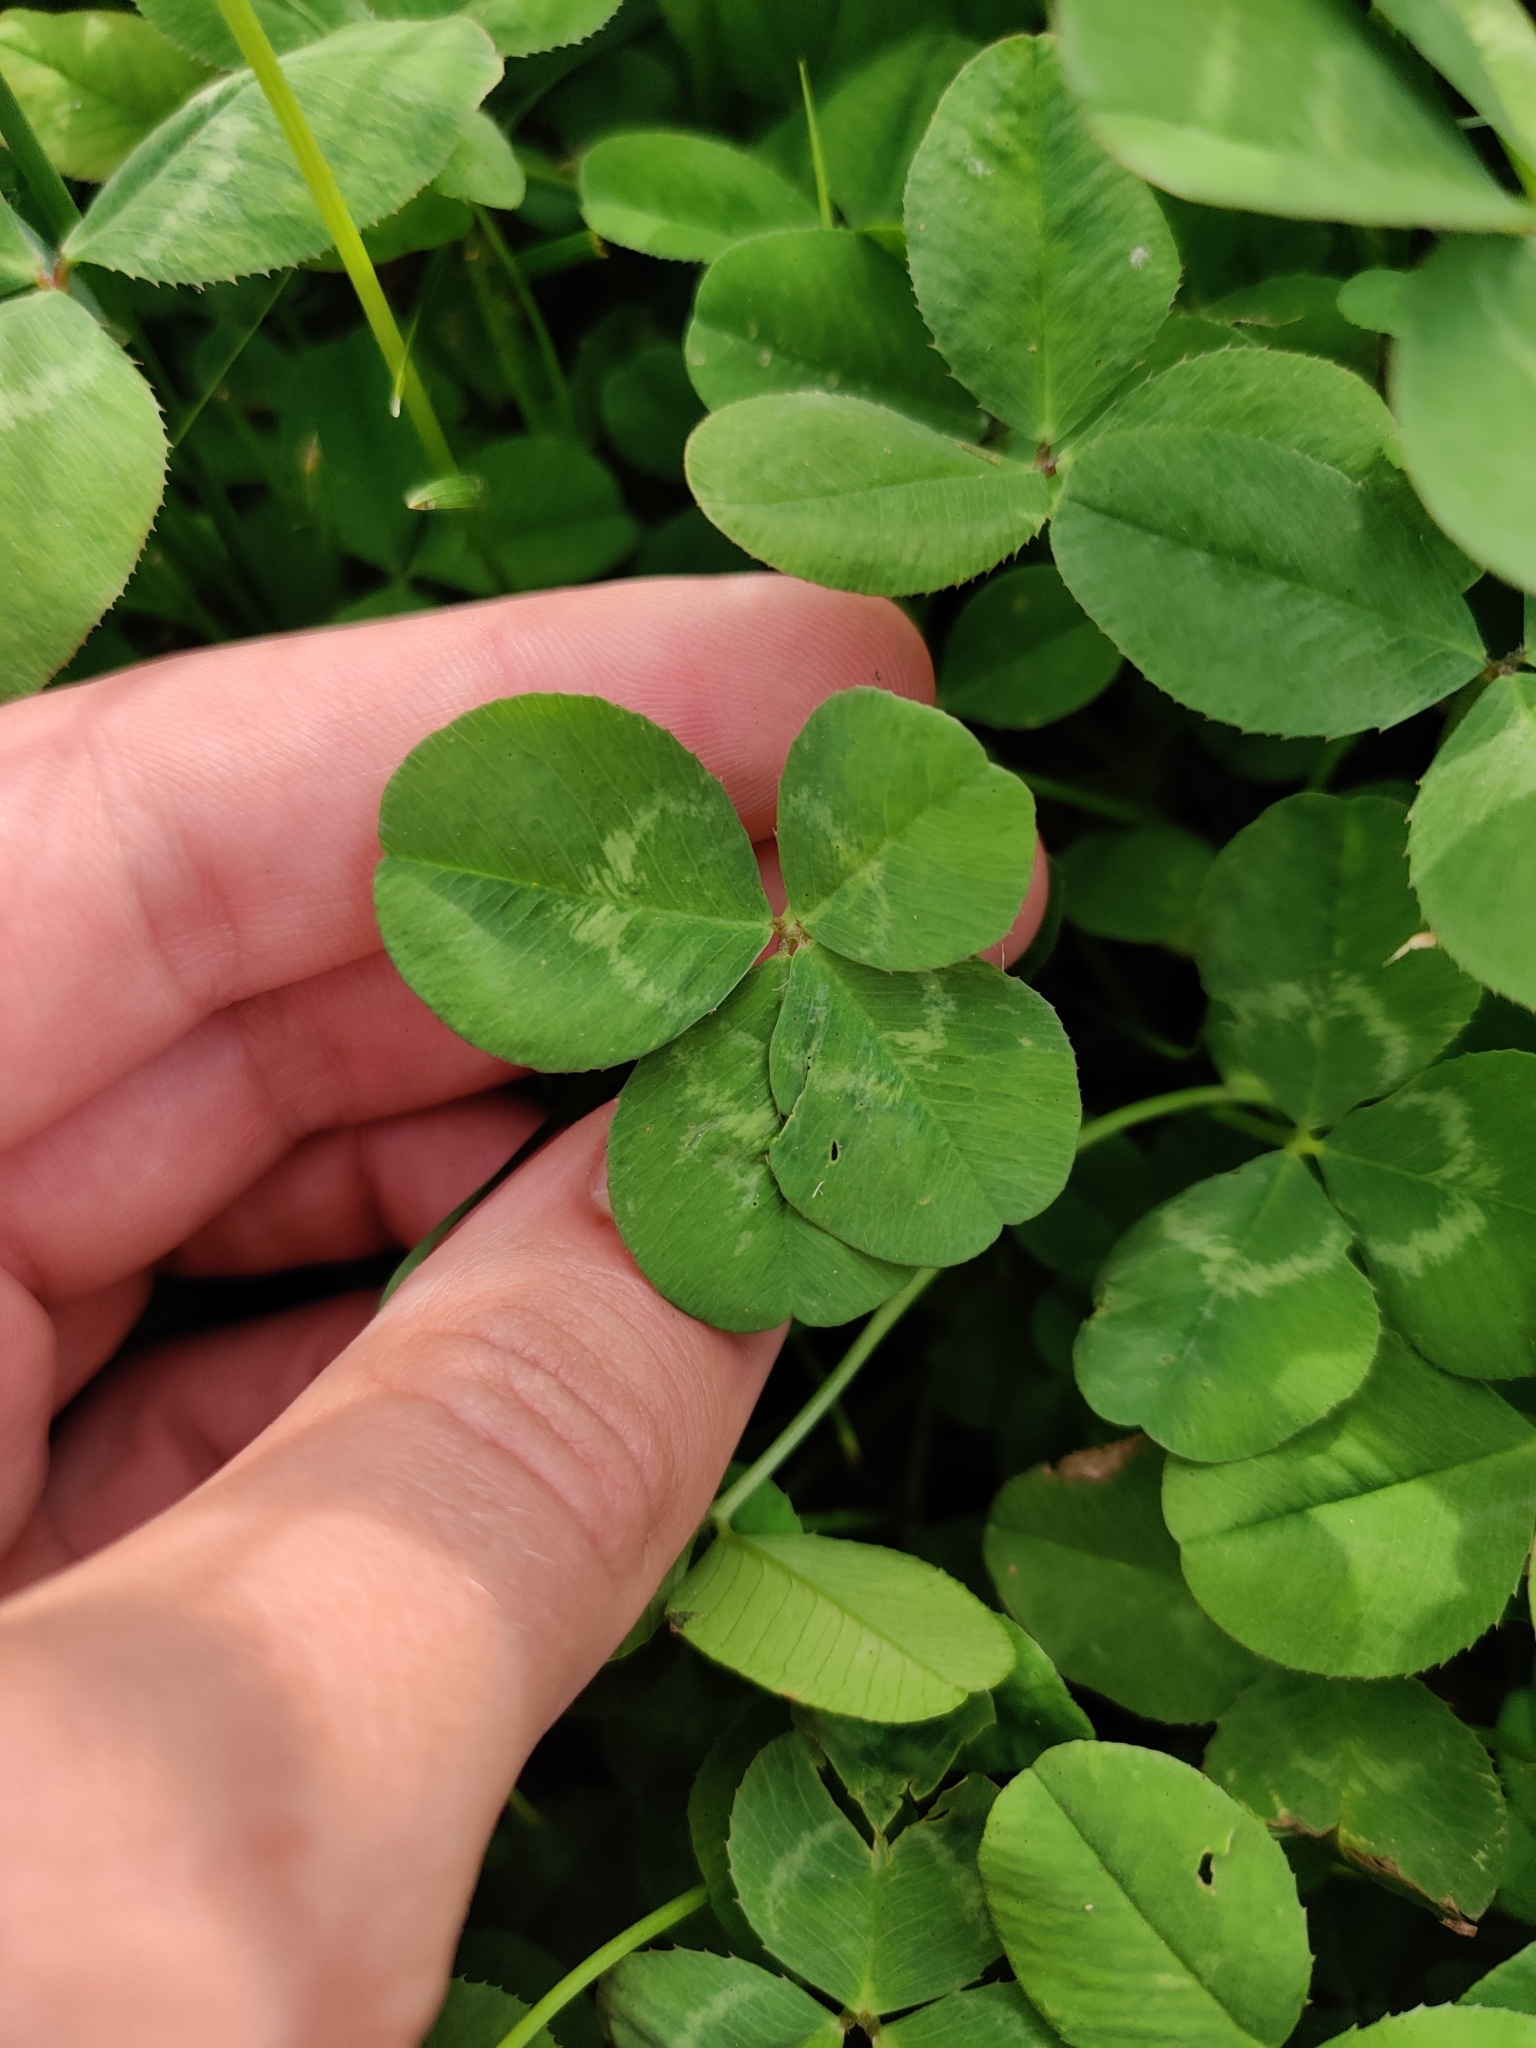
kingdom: Plantae
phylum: Tracheophyta
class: Magnoliopsida
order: Fabales
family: Fabaceae
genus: Trifolium
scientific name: Trifolium repens
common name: White clover
